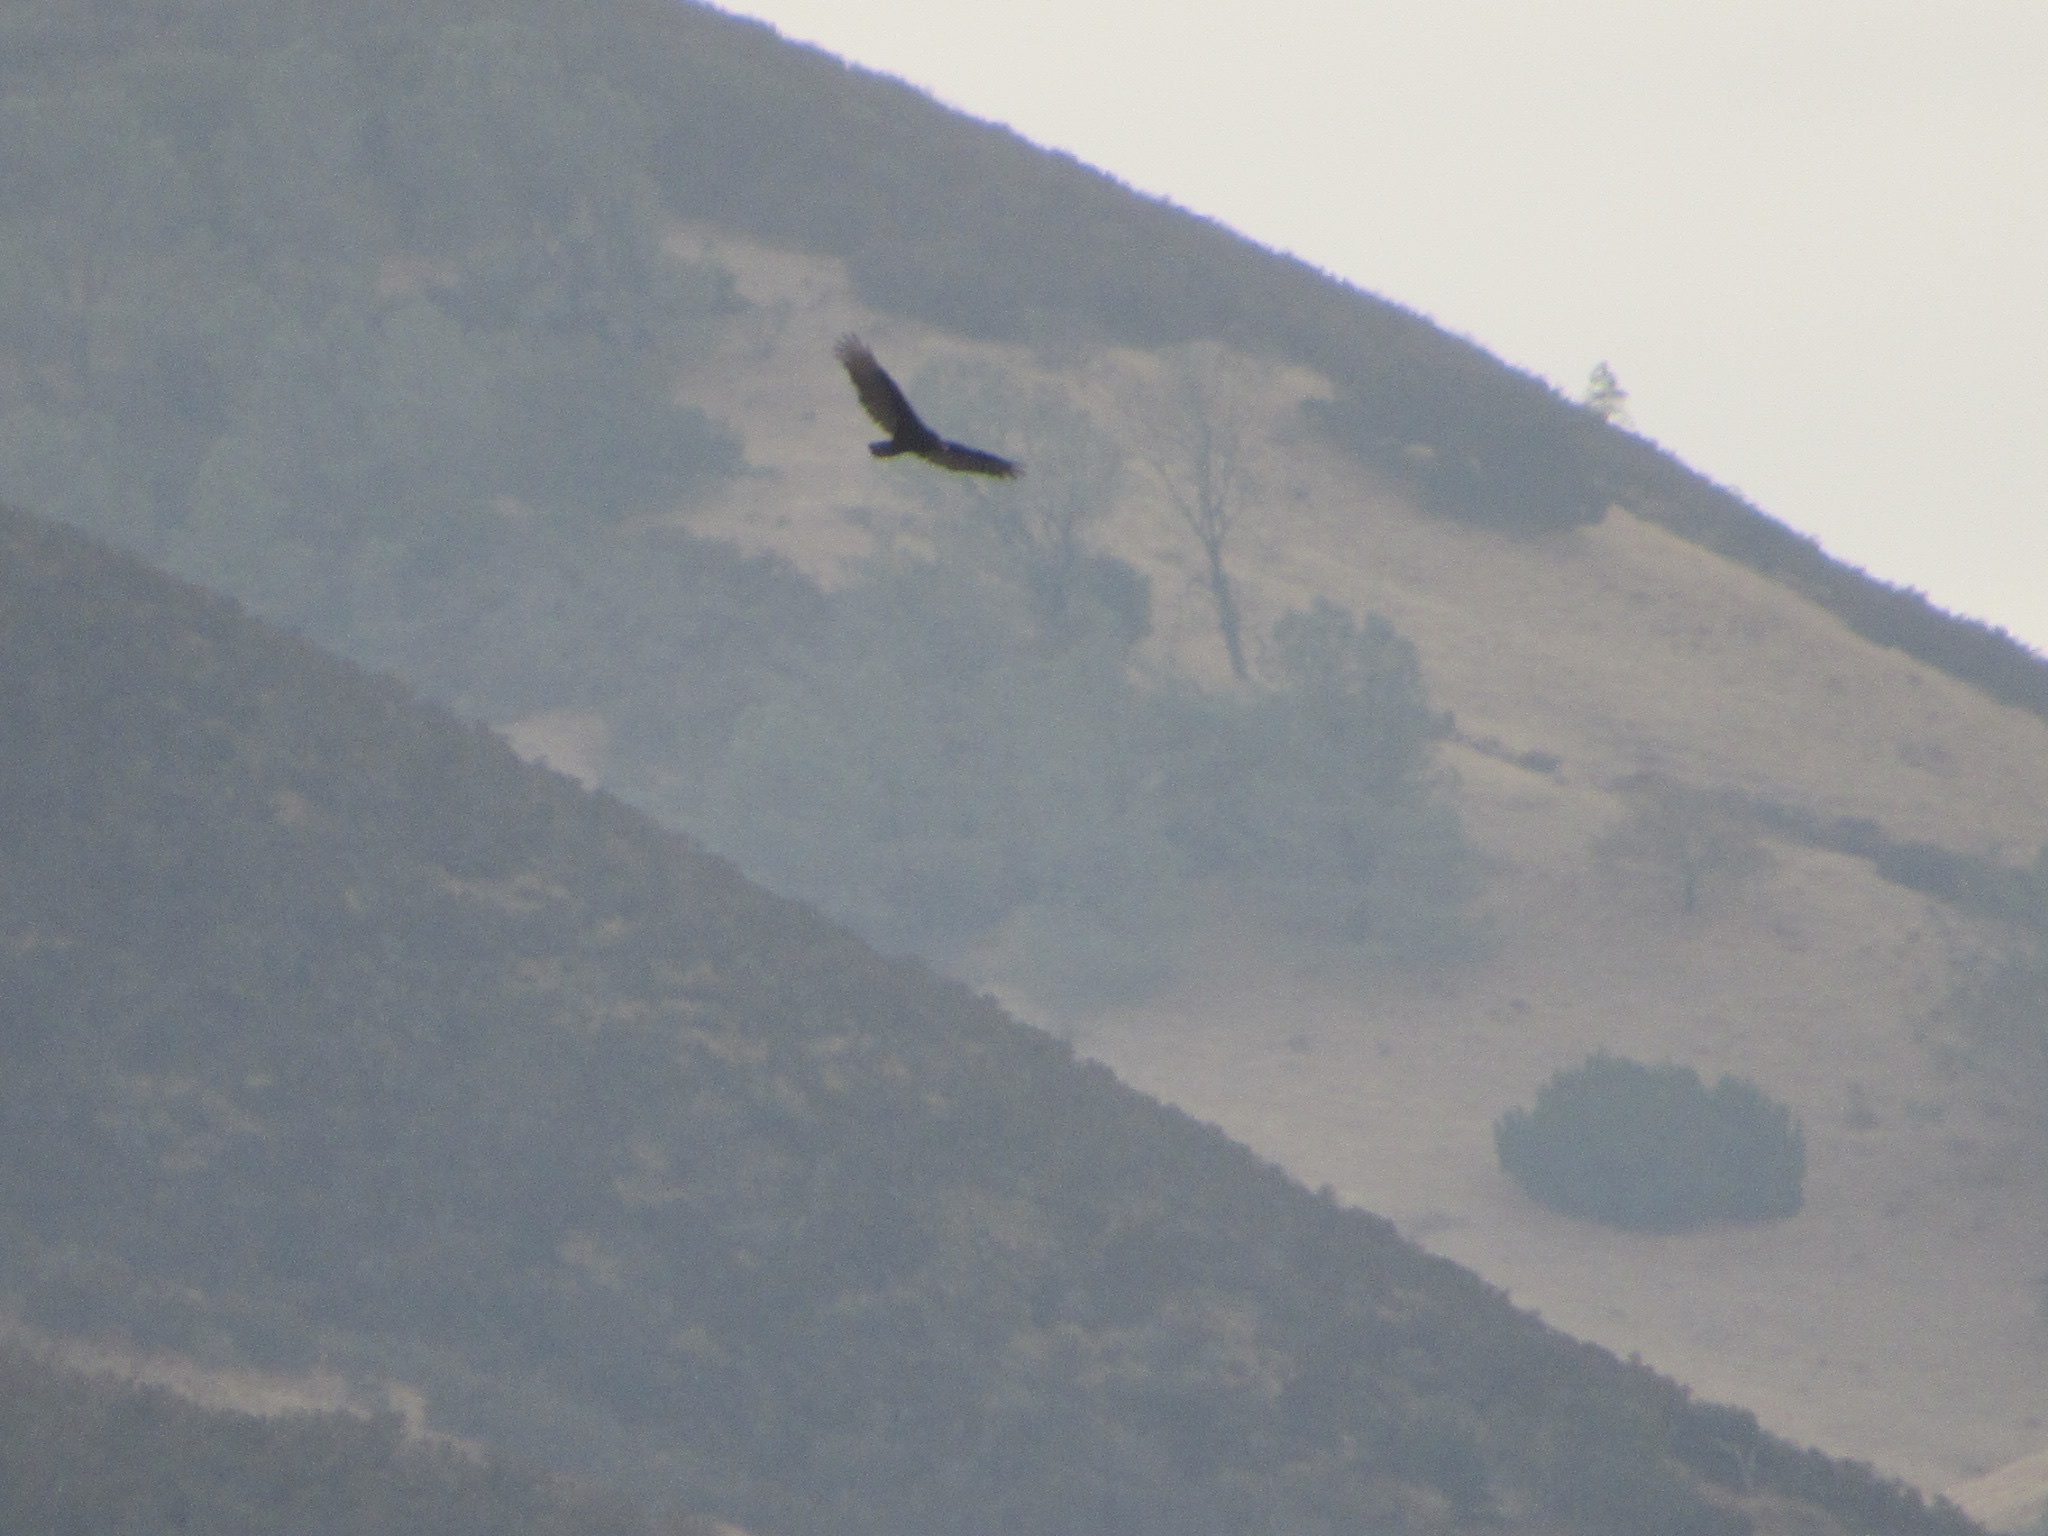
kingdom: Animalia
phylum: Chordata
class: Aves
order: Accipitriformes
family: Cathartidae
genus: Cathartes
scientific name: Cathartes aura
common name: Turkey vulture
